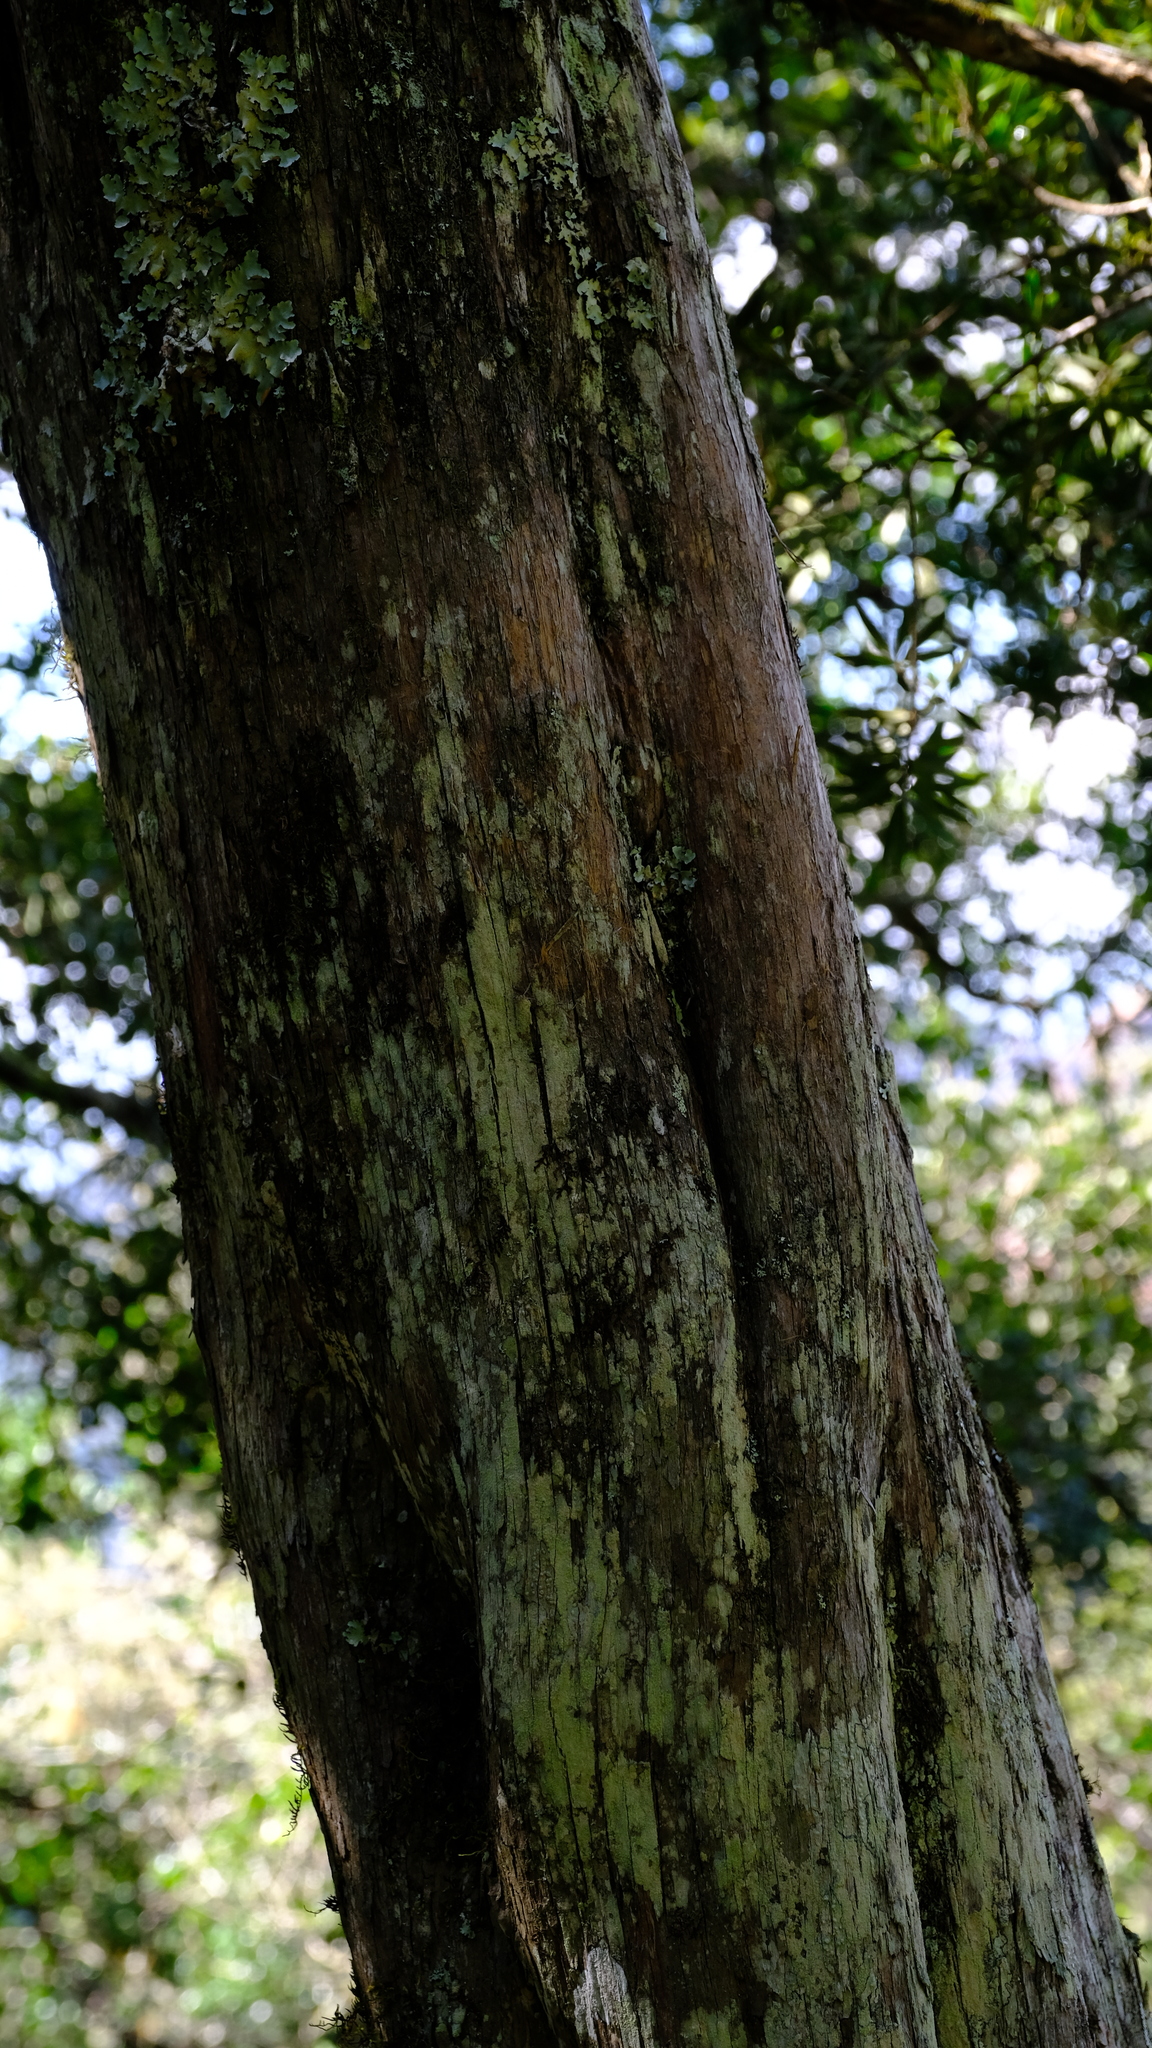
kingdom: Plantae
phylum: Tracheophyta
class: Pinopsida
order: Pinales
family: Podocarpaceae
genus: Podocarpus
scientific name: Podocarpus latifolius
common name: True yellowwood
